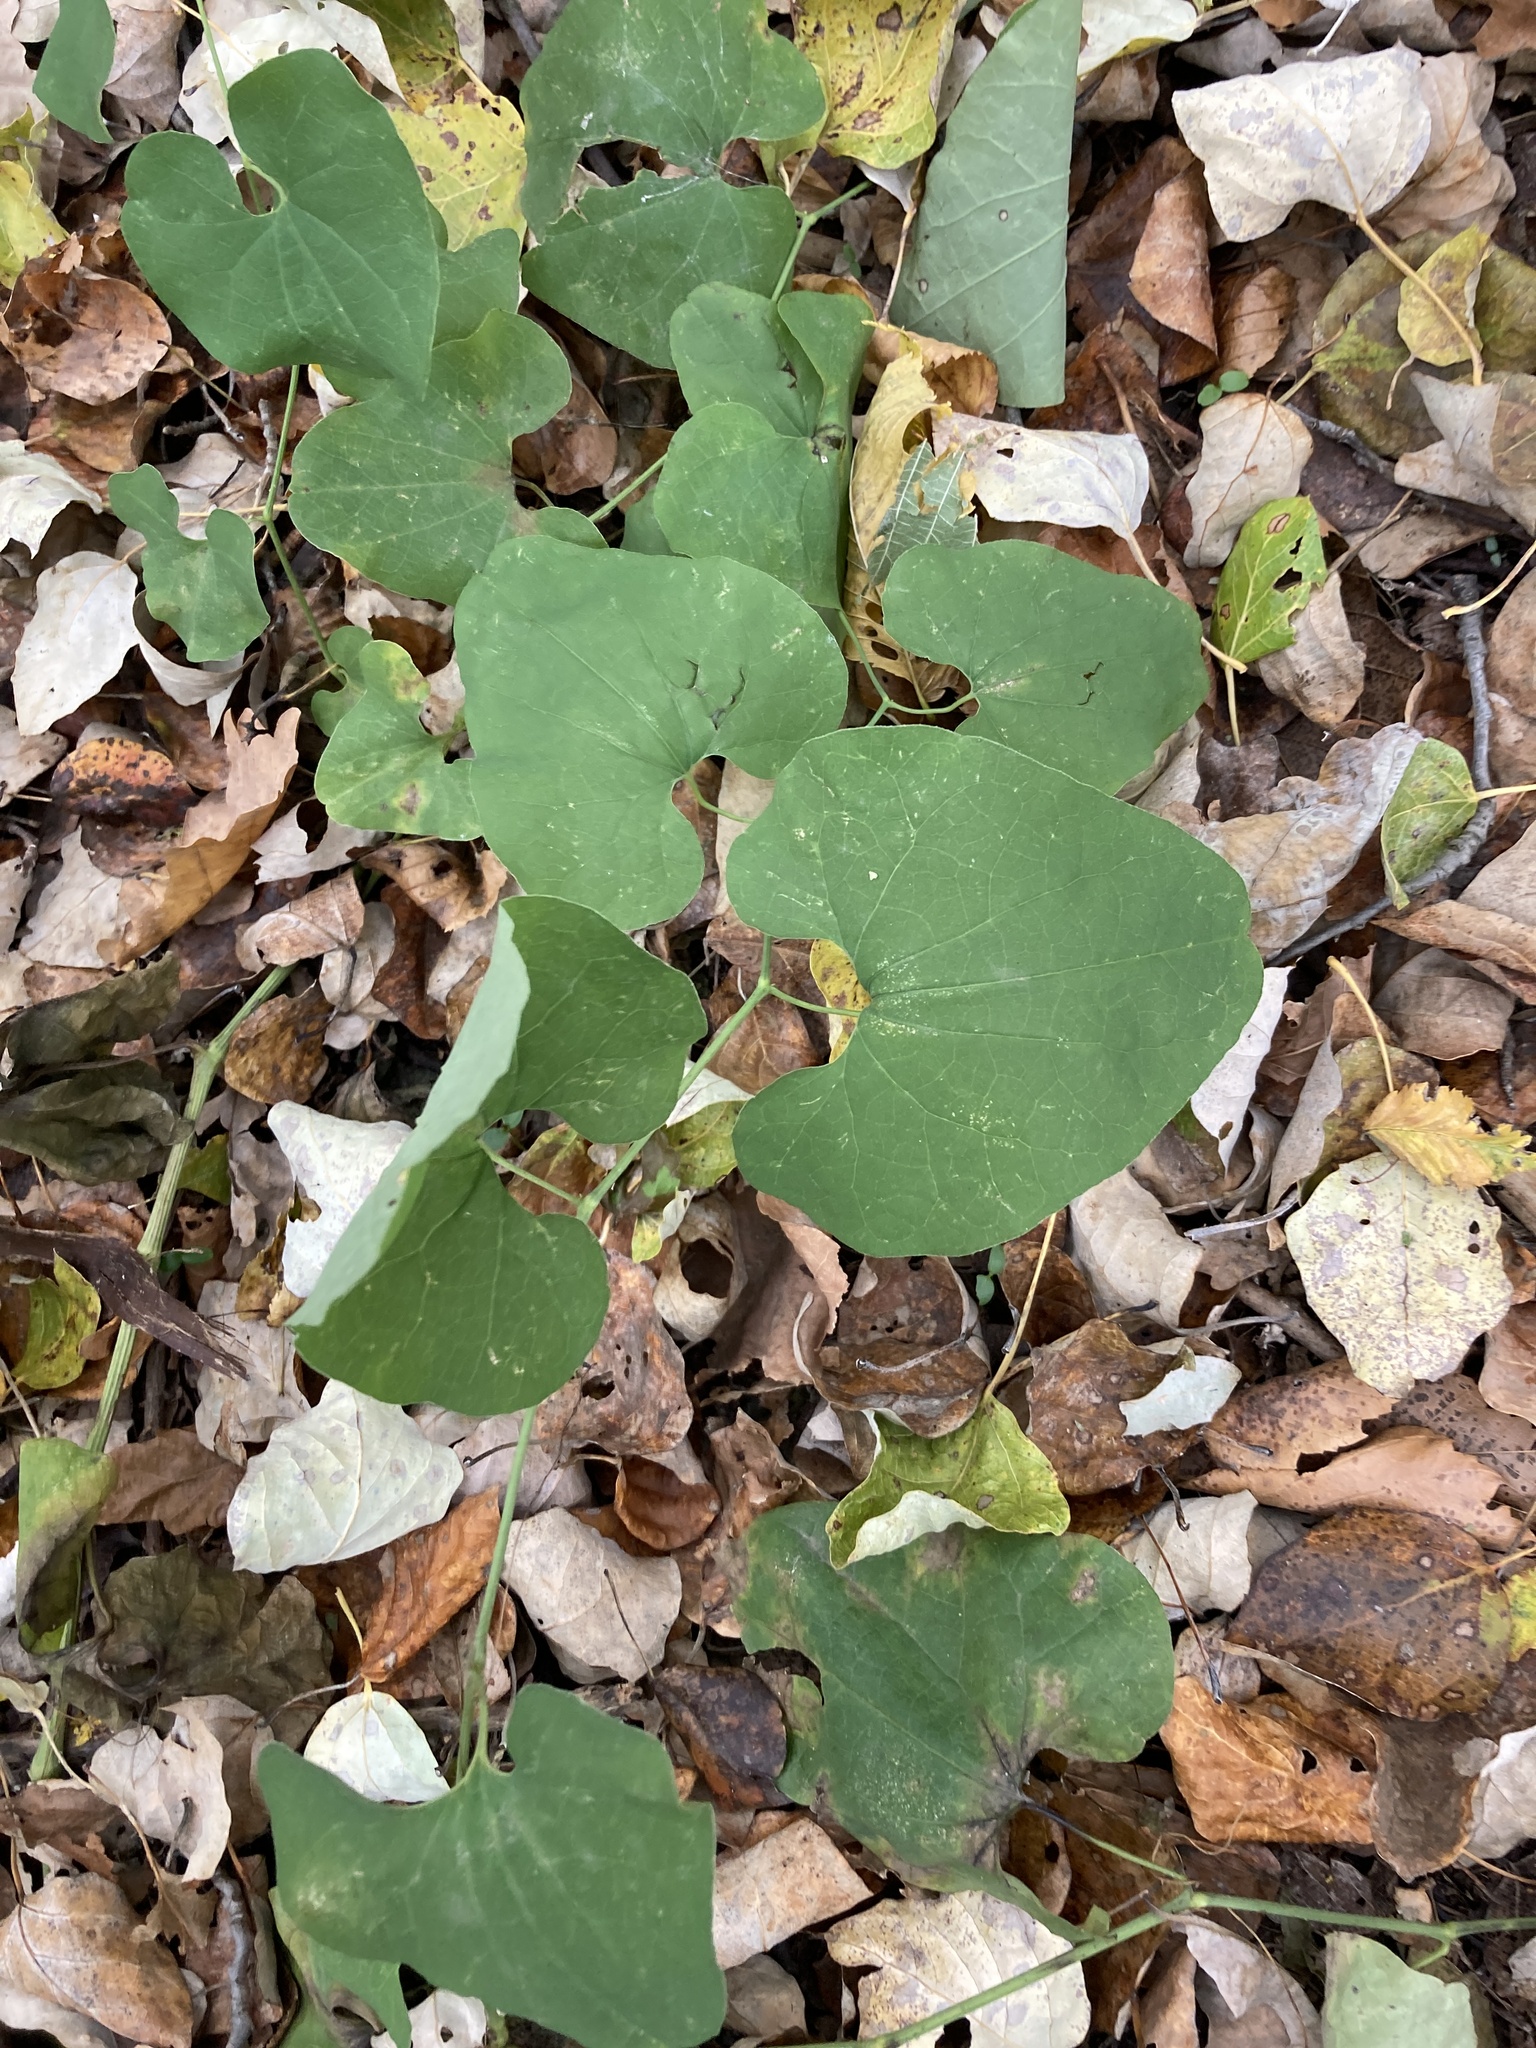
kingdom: Plantae
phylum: Tracheophyta
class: Magnoliopsida
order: Piperales
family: Aristolochiaceae
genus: Aristolochia
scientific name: Aristolochia clematitis
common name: Birthwort
